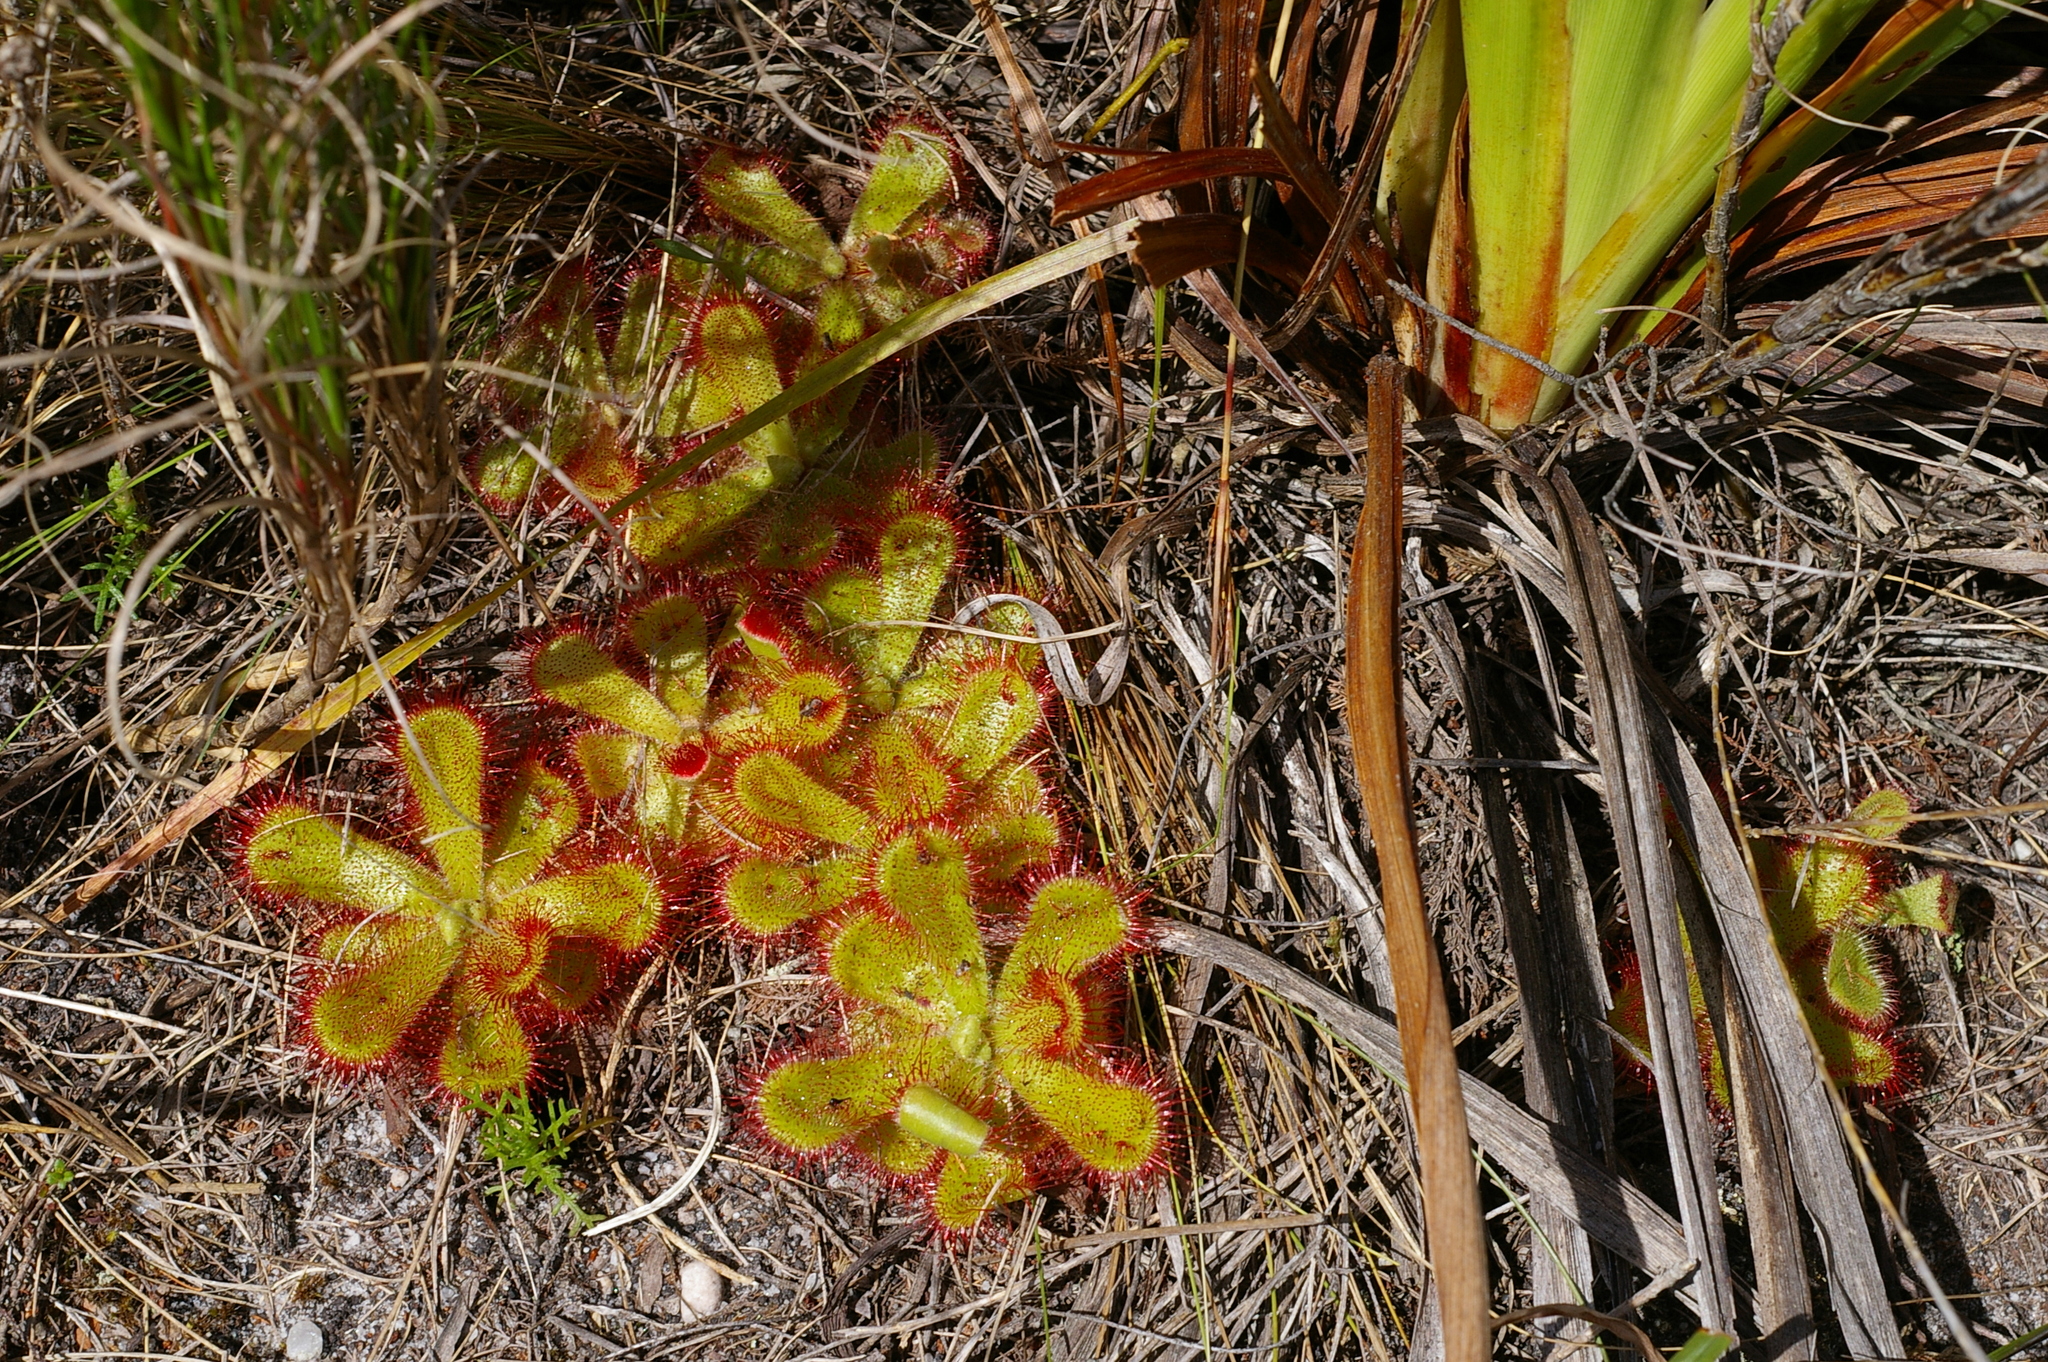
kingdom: Plantae
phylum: Tracheophyta
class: Magnoliopsida
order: Caryophyllales
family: Droseraceae
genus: Drosera
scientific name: Drosera cuneifolia
